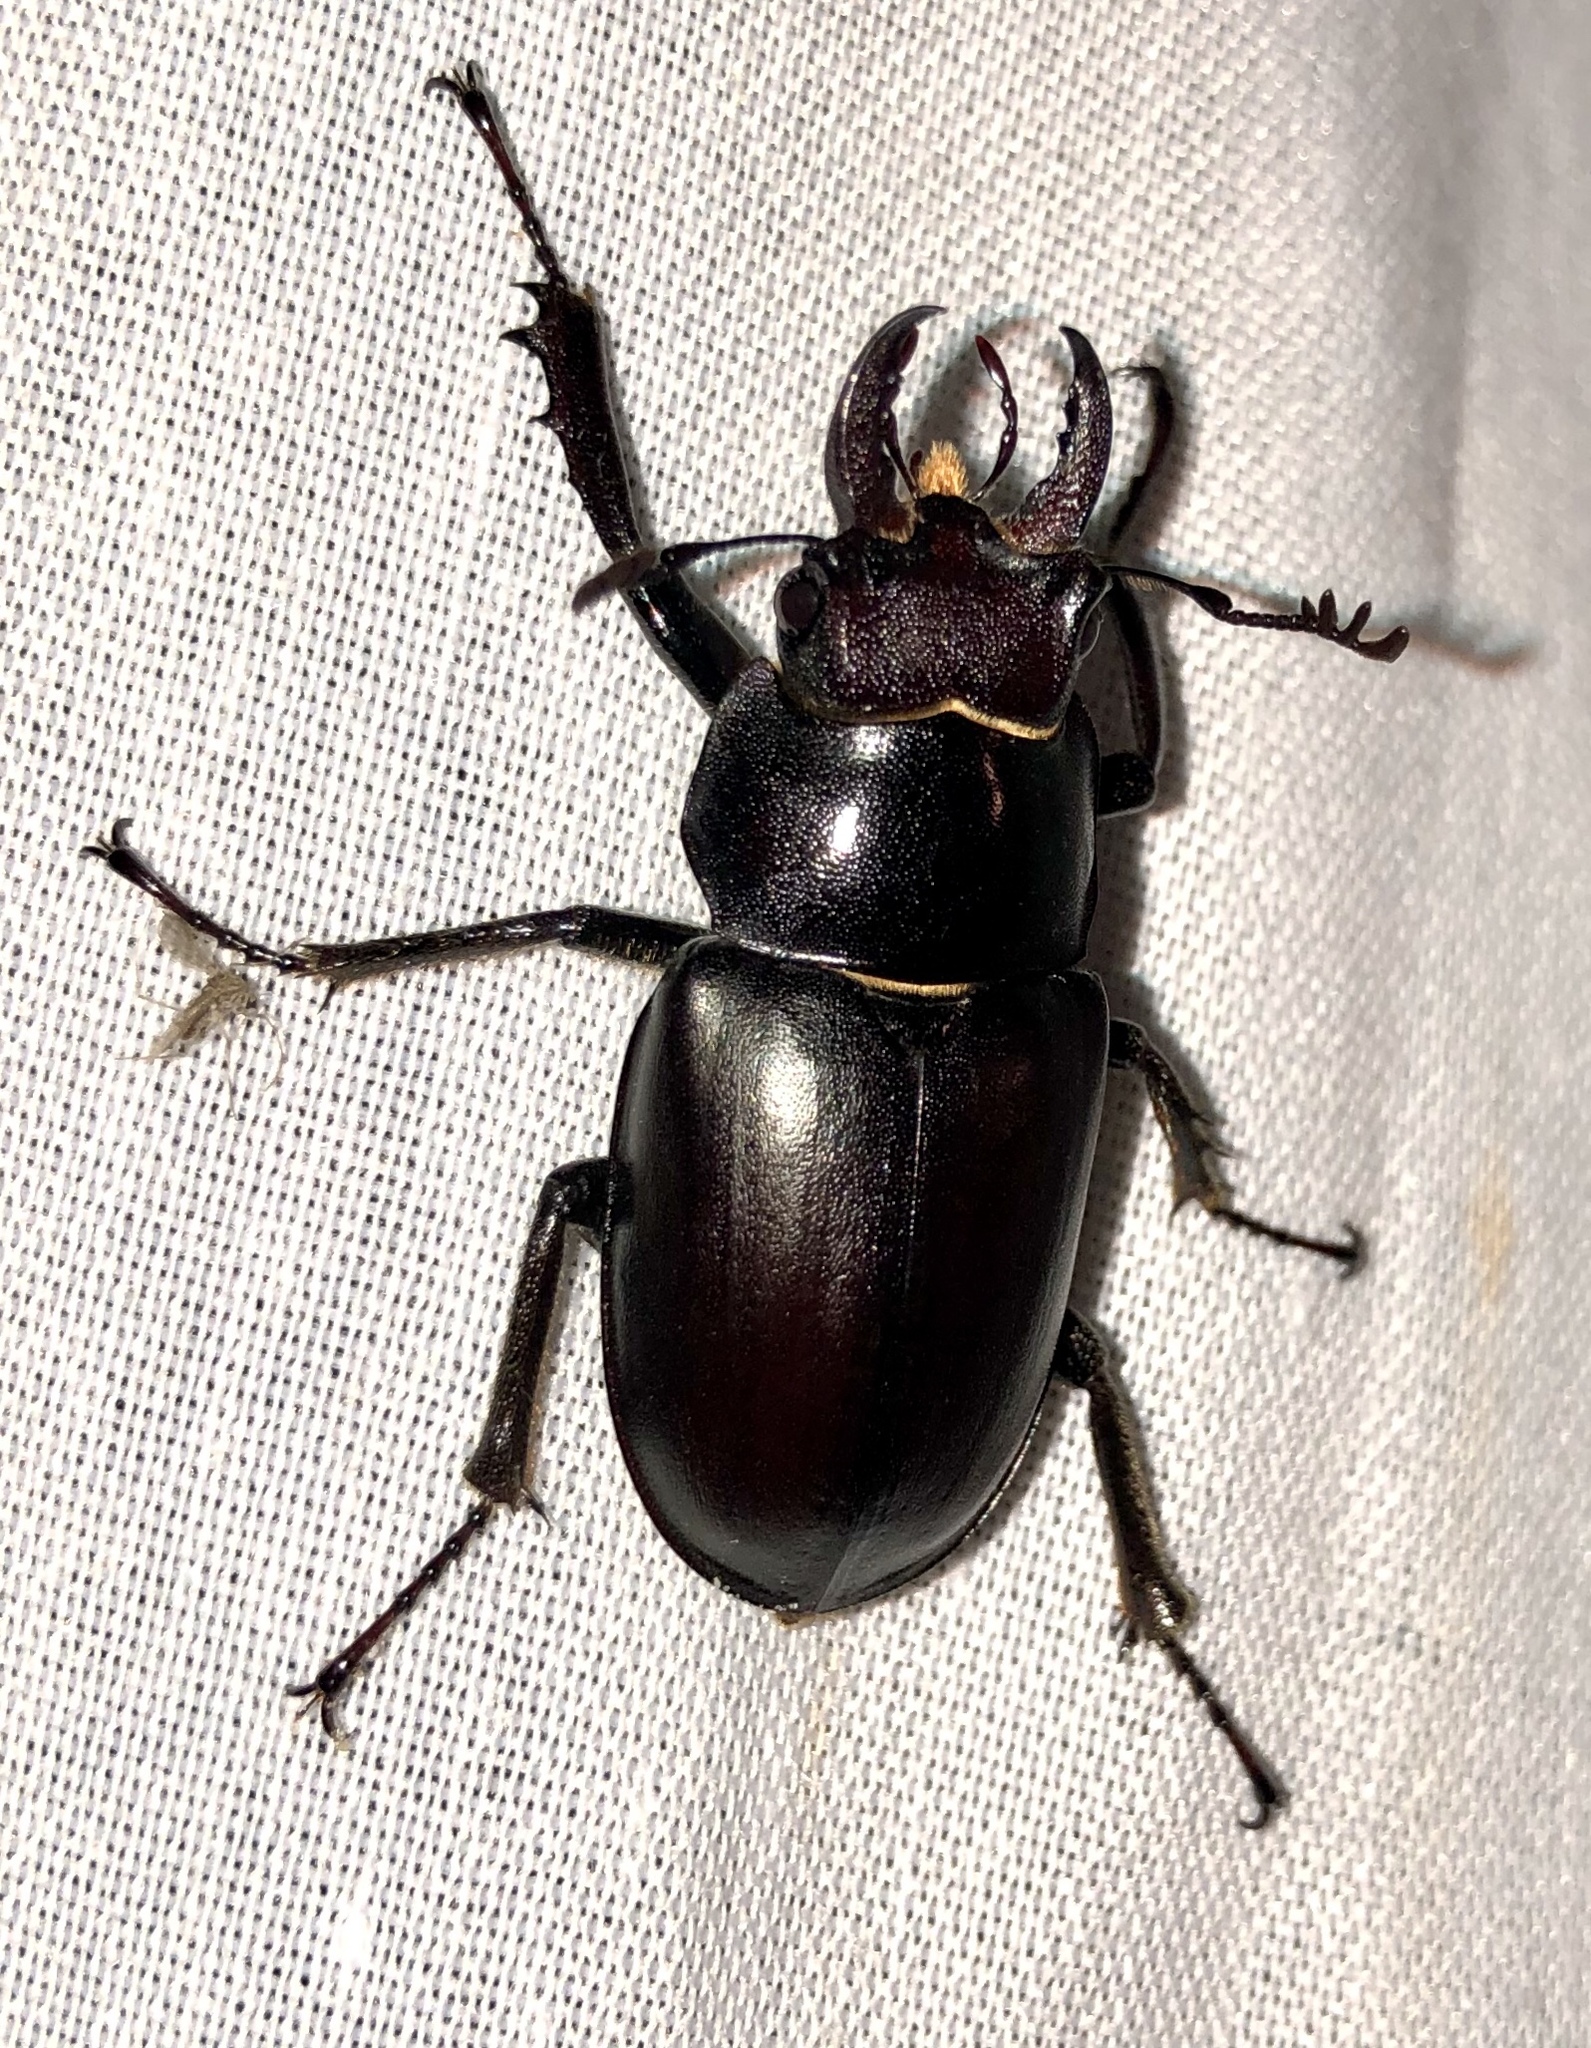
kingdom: Animalia
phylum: Arthropoda
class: Insecta
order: Coleoptera
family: Lucanidae
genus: Lucanus
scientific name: Lucanus placidus
